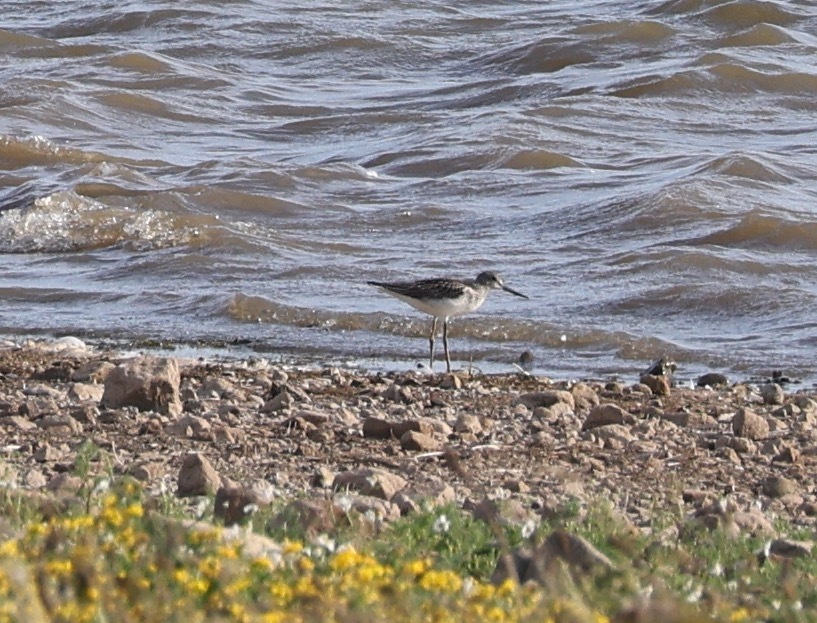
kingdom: Animalia
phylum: Chordata
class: Aves
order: Charadriiformes
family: Scolopacidae
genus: Tringa
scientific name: Tringa nebularia
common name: Common greenshank
